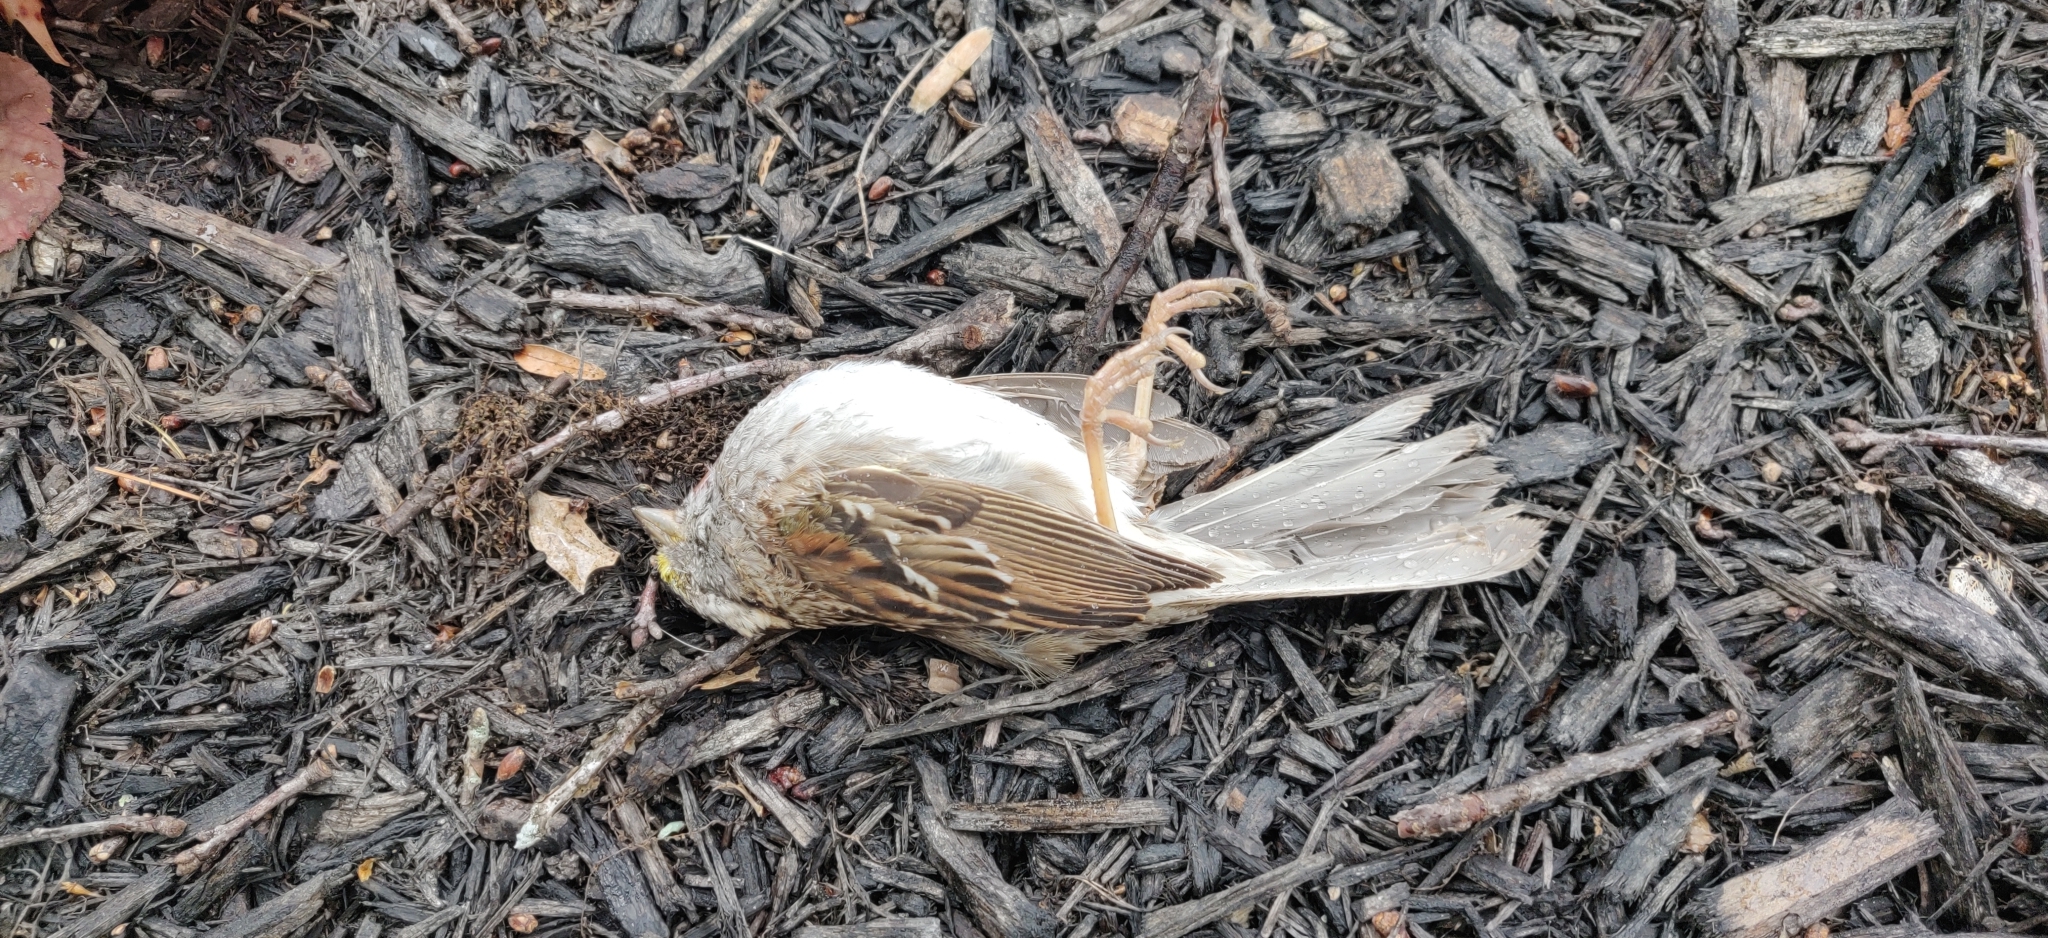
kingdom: Animalia
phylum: Chordata
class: Aves
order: Passeriformes
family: Passerellidae
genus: Zonotrichia
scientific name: Zonotrichia albicollis
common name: White-throated sparrow
